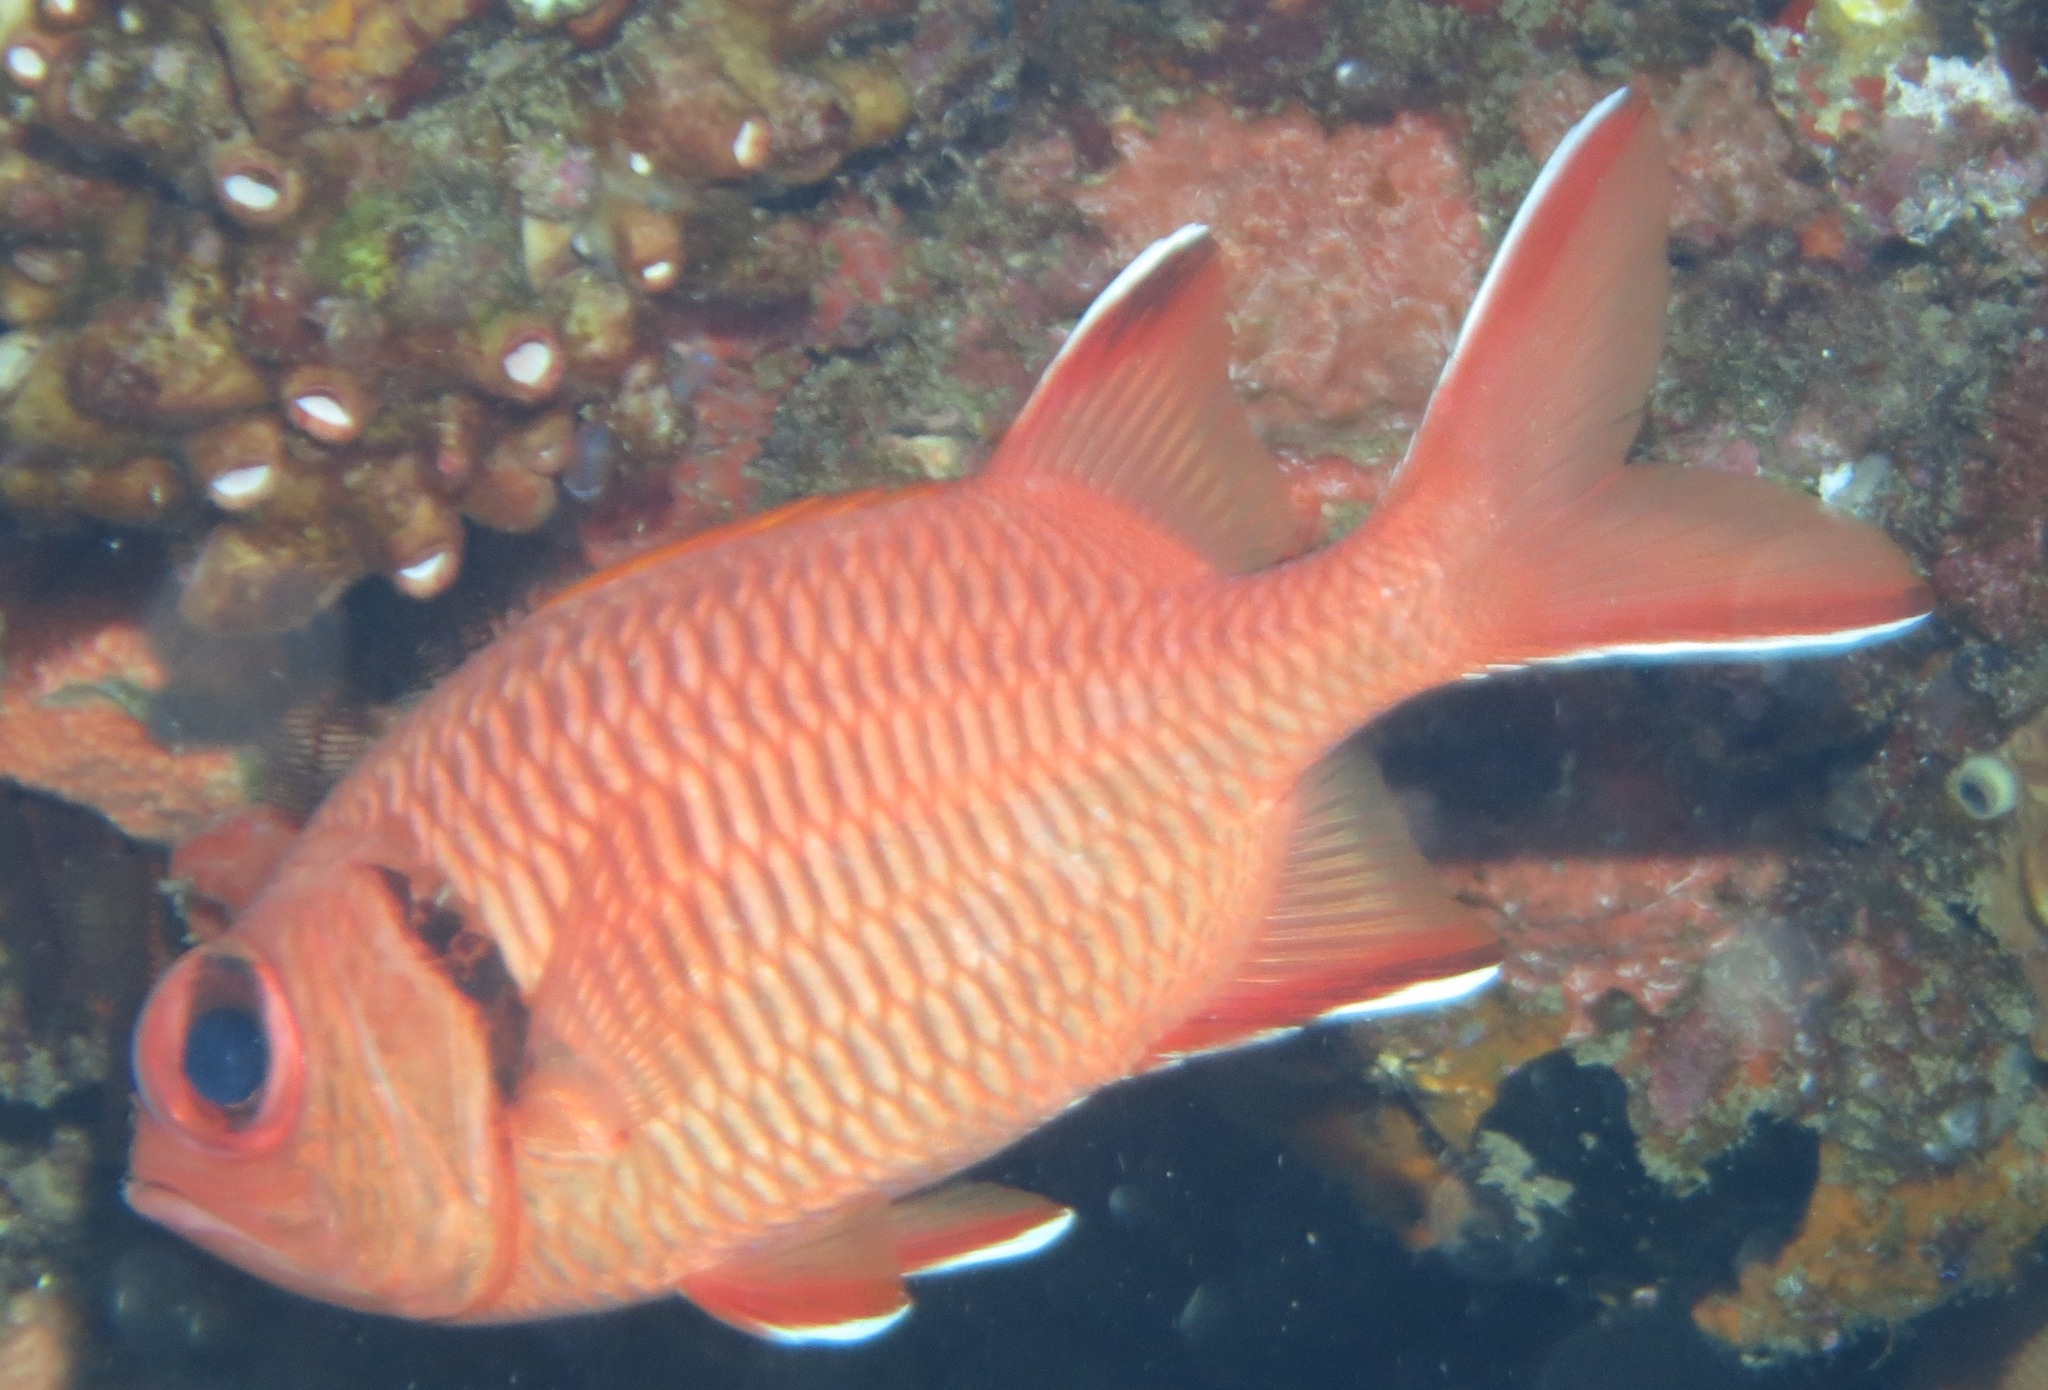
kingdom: Animalia
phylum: Chordata
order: Beryciformes
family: Holocentridae
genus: Myripristis
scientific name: Myripristis berndti
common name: Bigscale soldierfish
